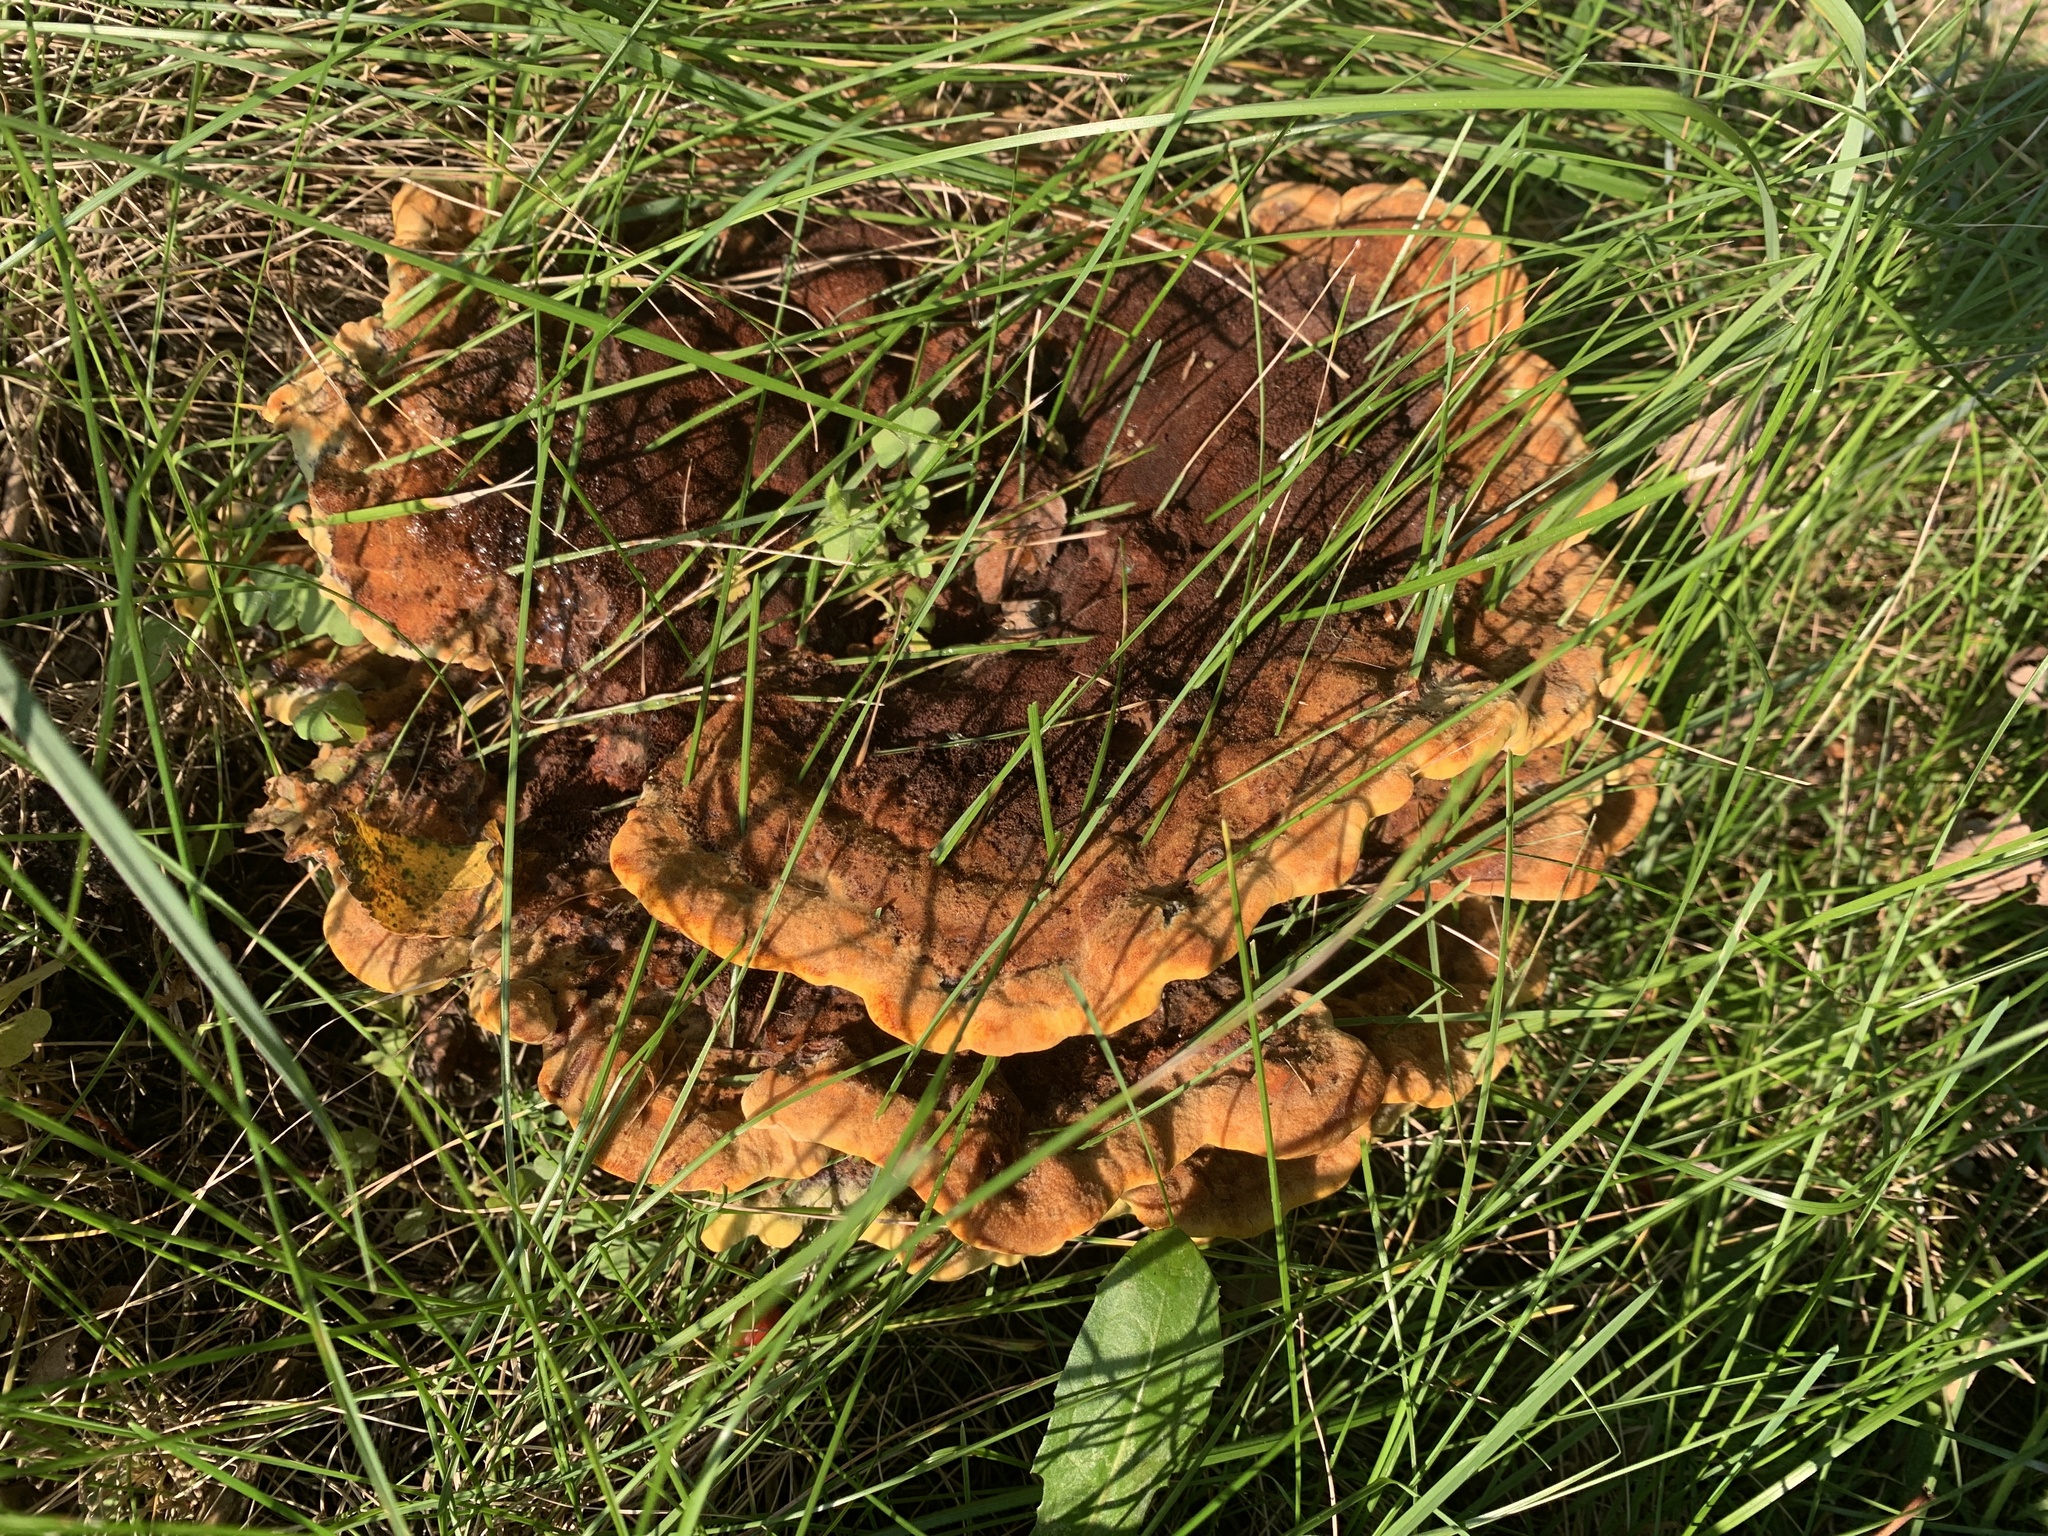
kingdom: Fungi
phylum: Basidiomycota
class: Agaricomycetes
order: Polyporales
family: Laetiporaceae
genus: Phaeolus
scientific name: Phaeolus schweinitzii
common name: Dyer's mazegill
